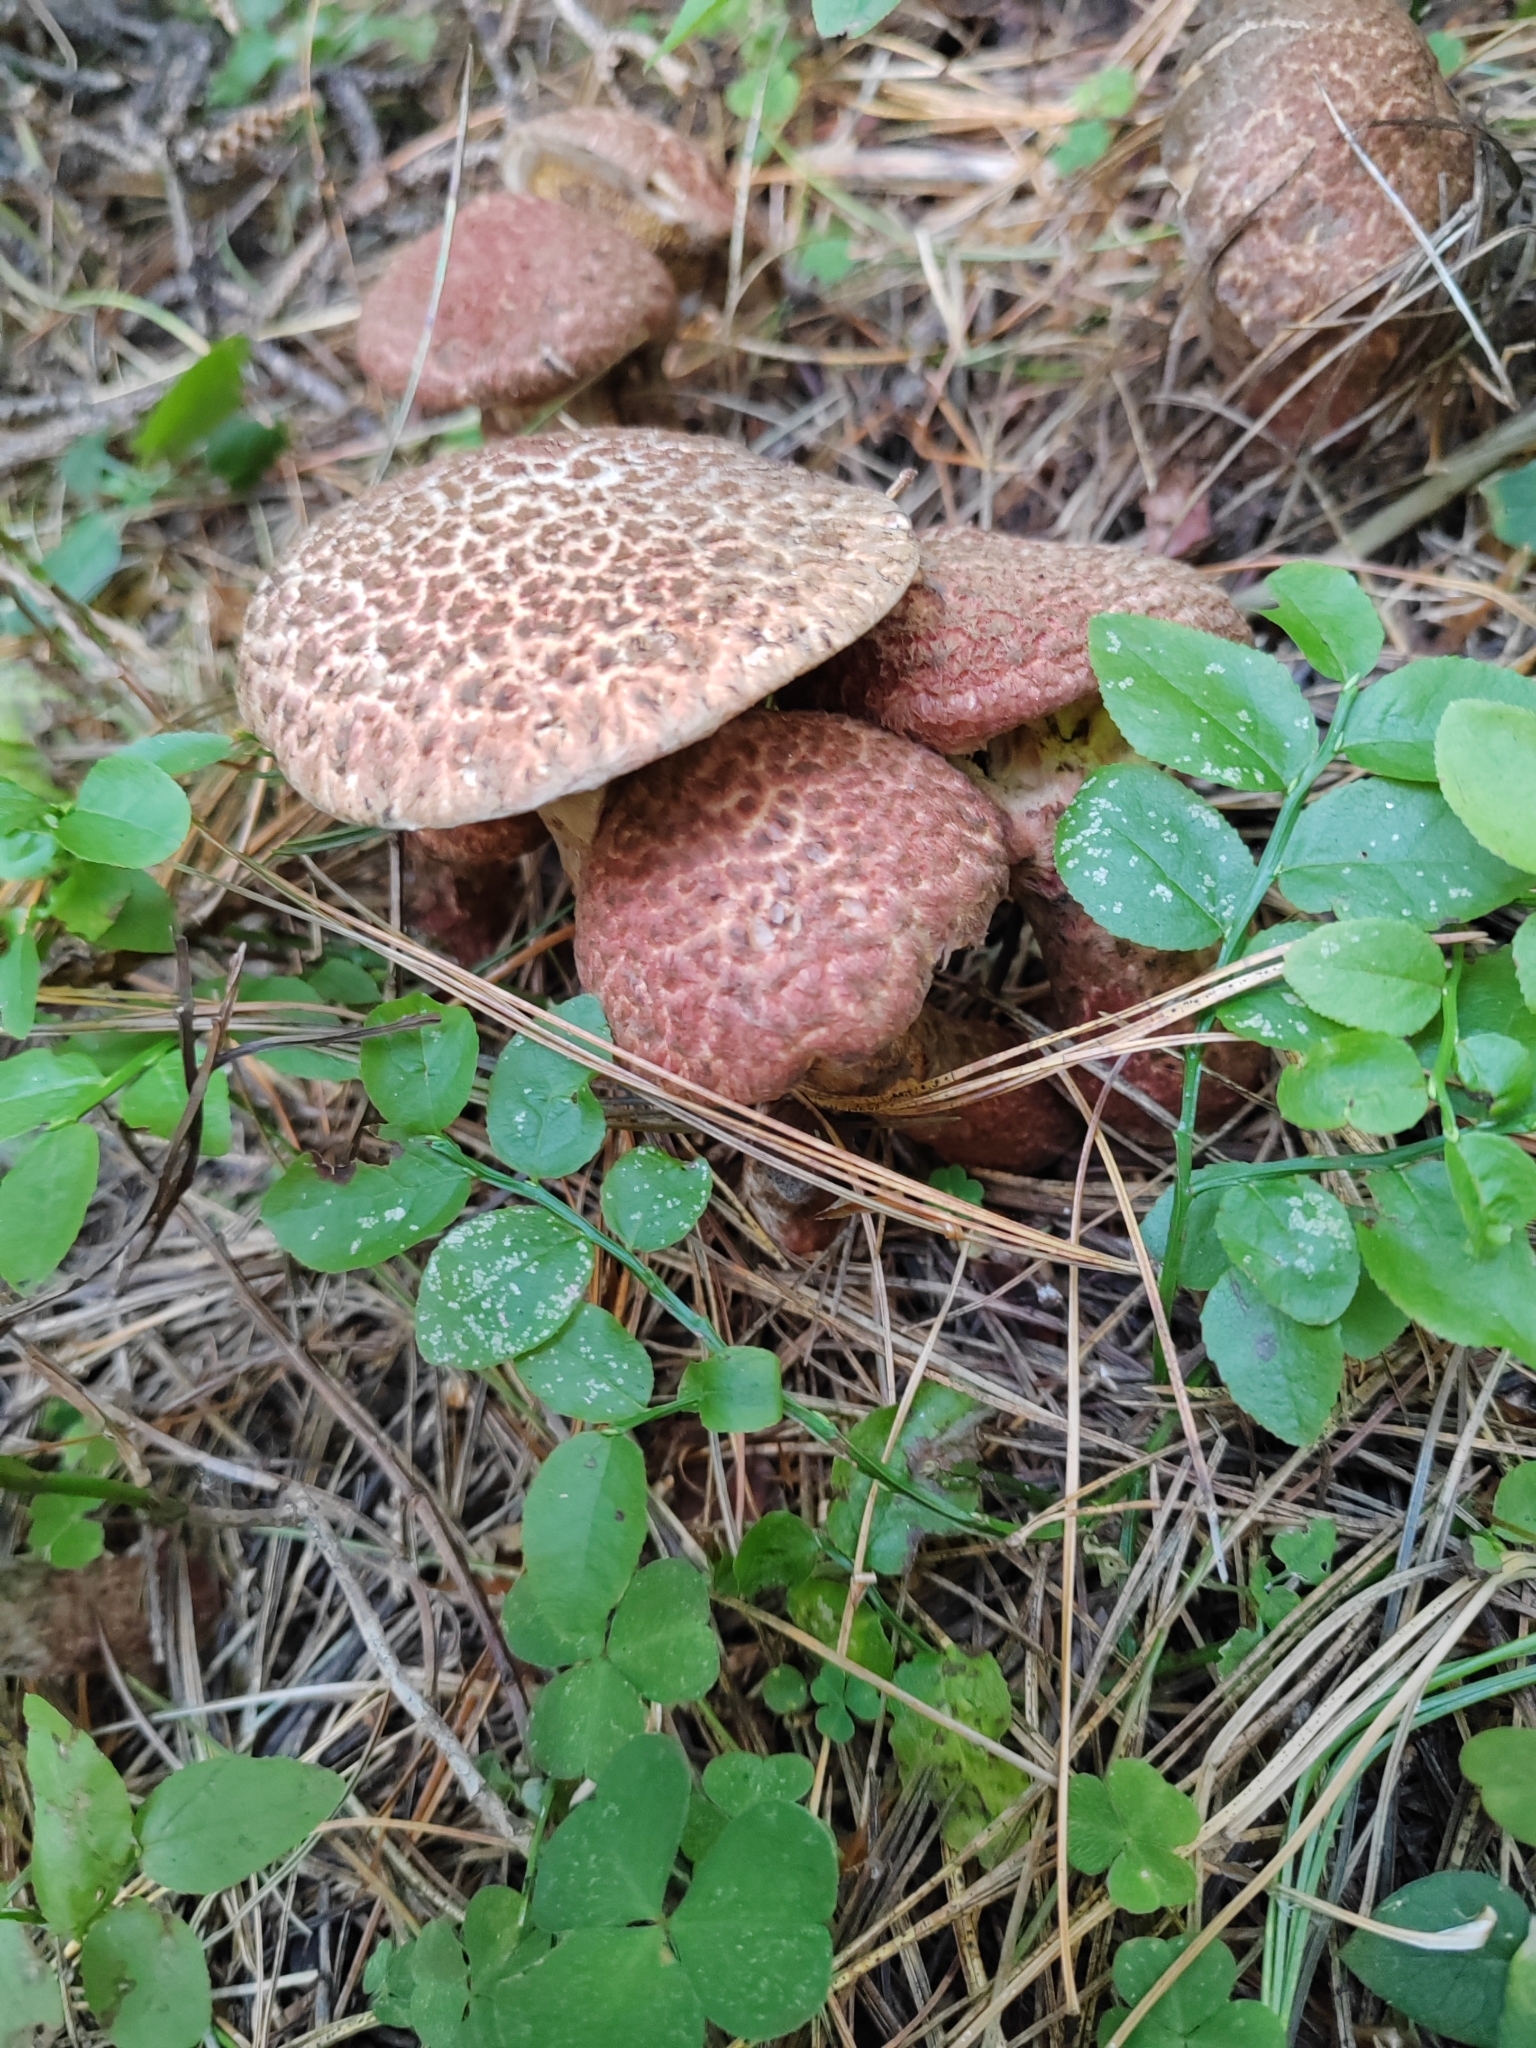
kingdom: Fungi
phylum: Basidiomycota
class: Agaricomycetes
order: Boletales
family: Suillaceae
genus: Suillus
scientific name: Suillus spraguei
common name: Painted suillus
